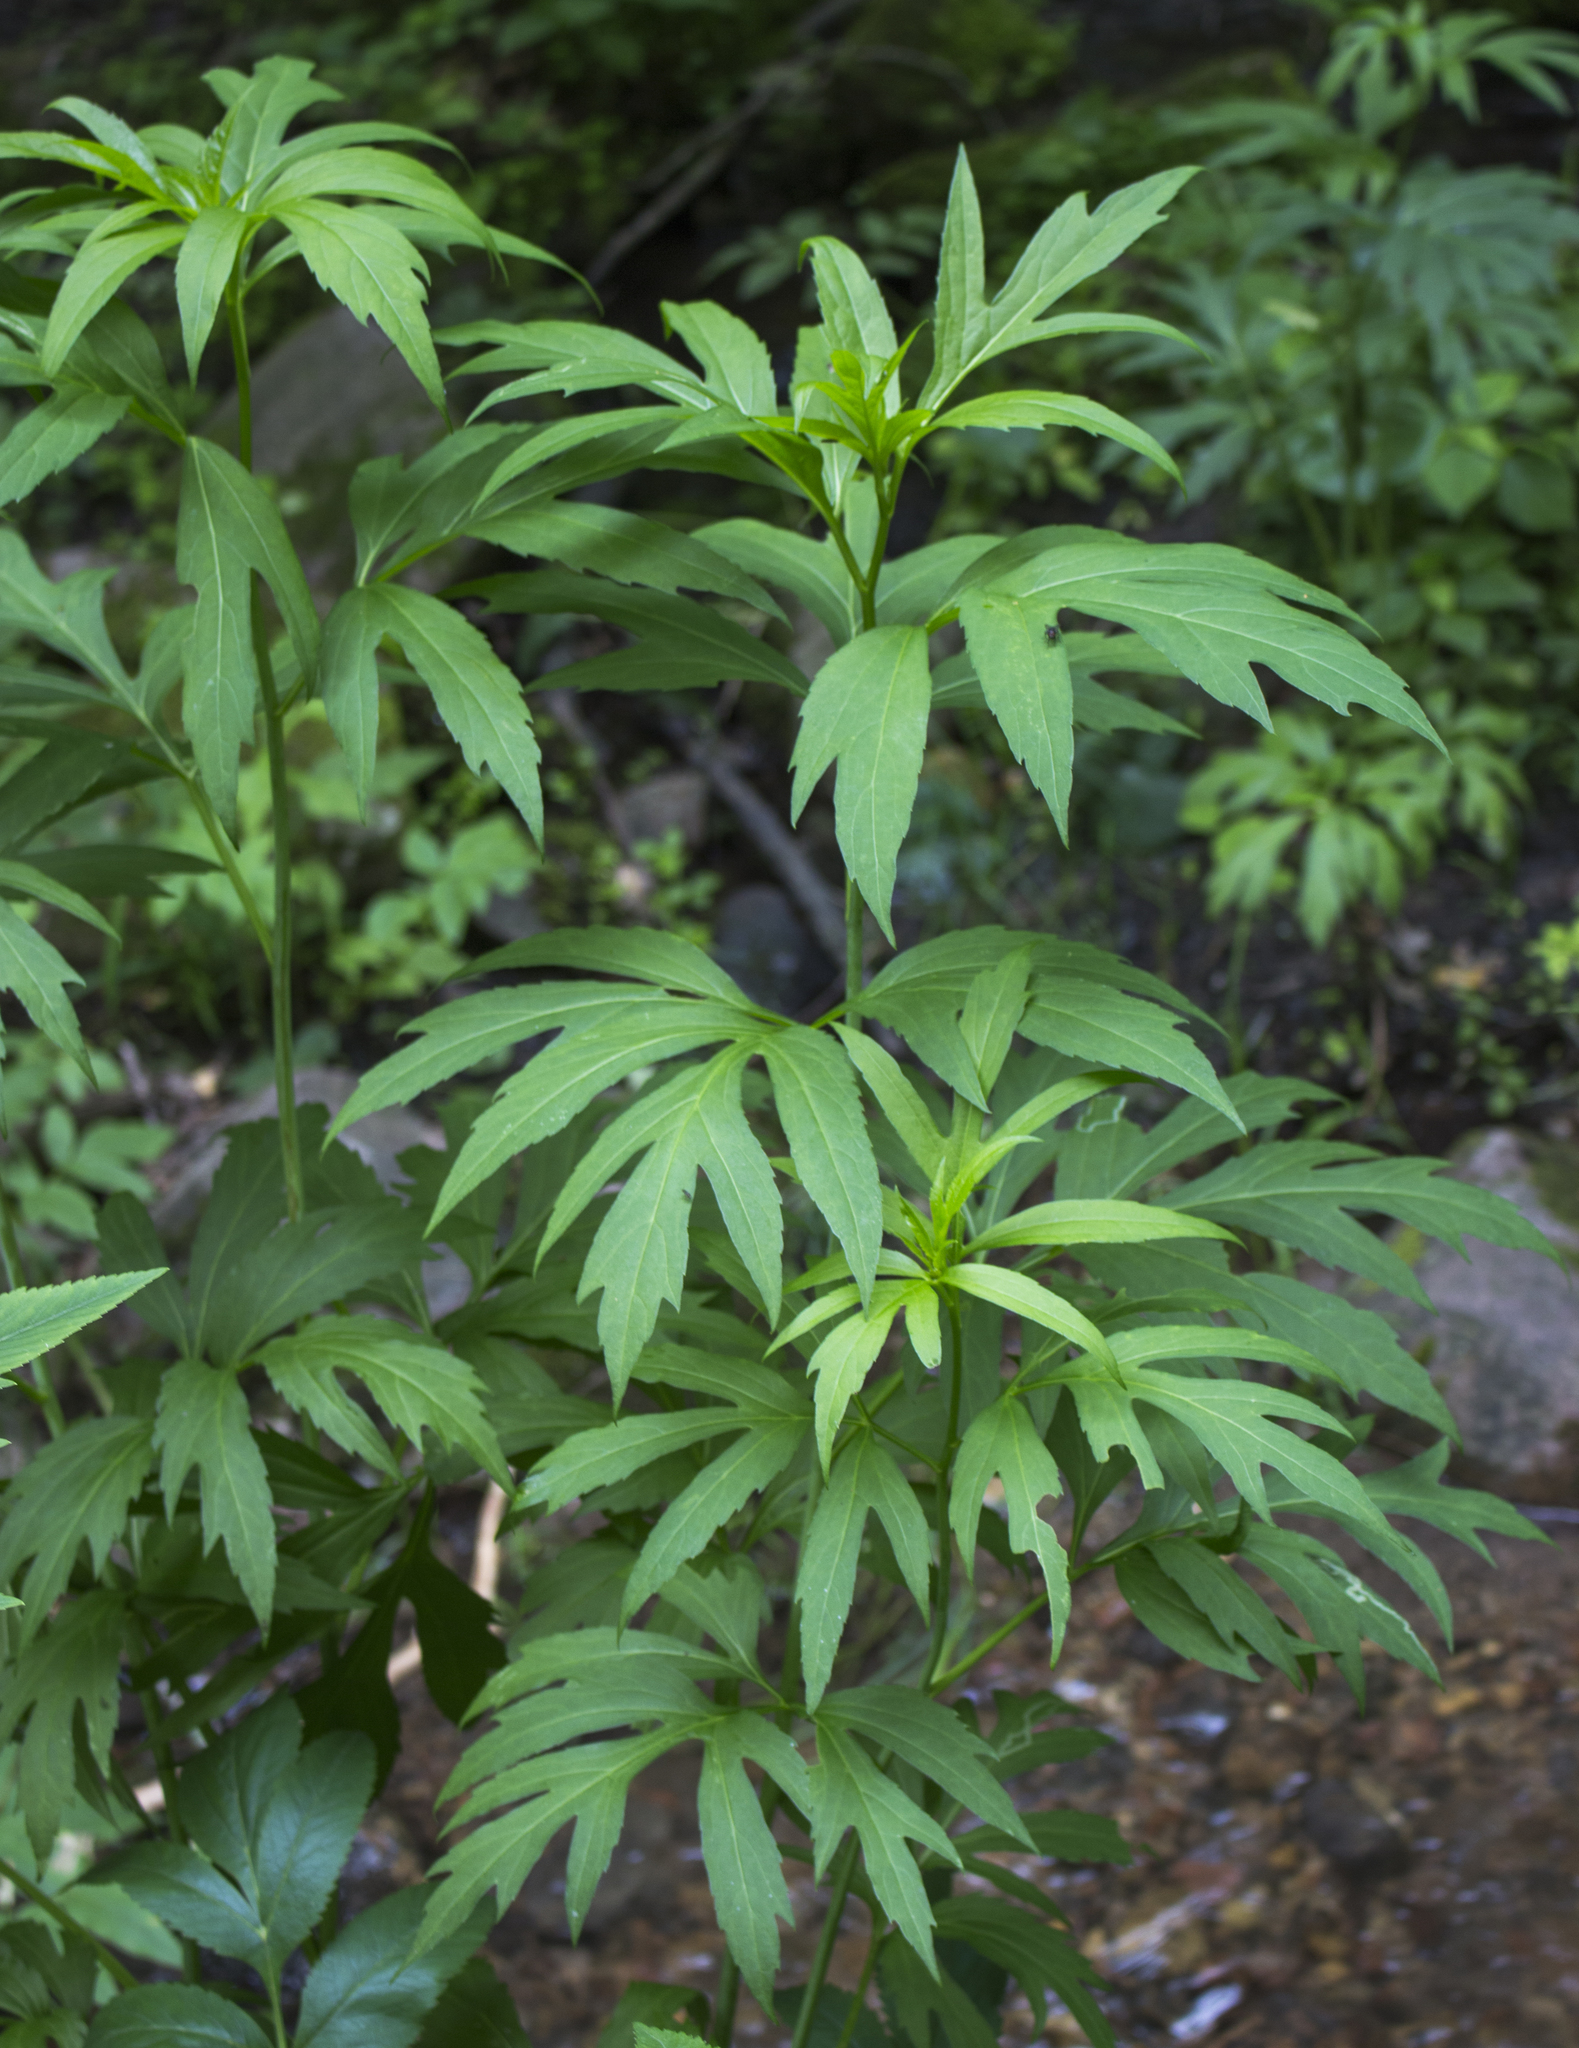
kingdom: Plantae
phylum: Tracheophyta
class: Magnoliopsida
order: Asterales
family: Asteraceae
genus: Rudbeckia
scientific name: Rudbeckia laciniata
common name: Coneflower
